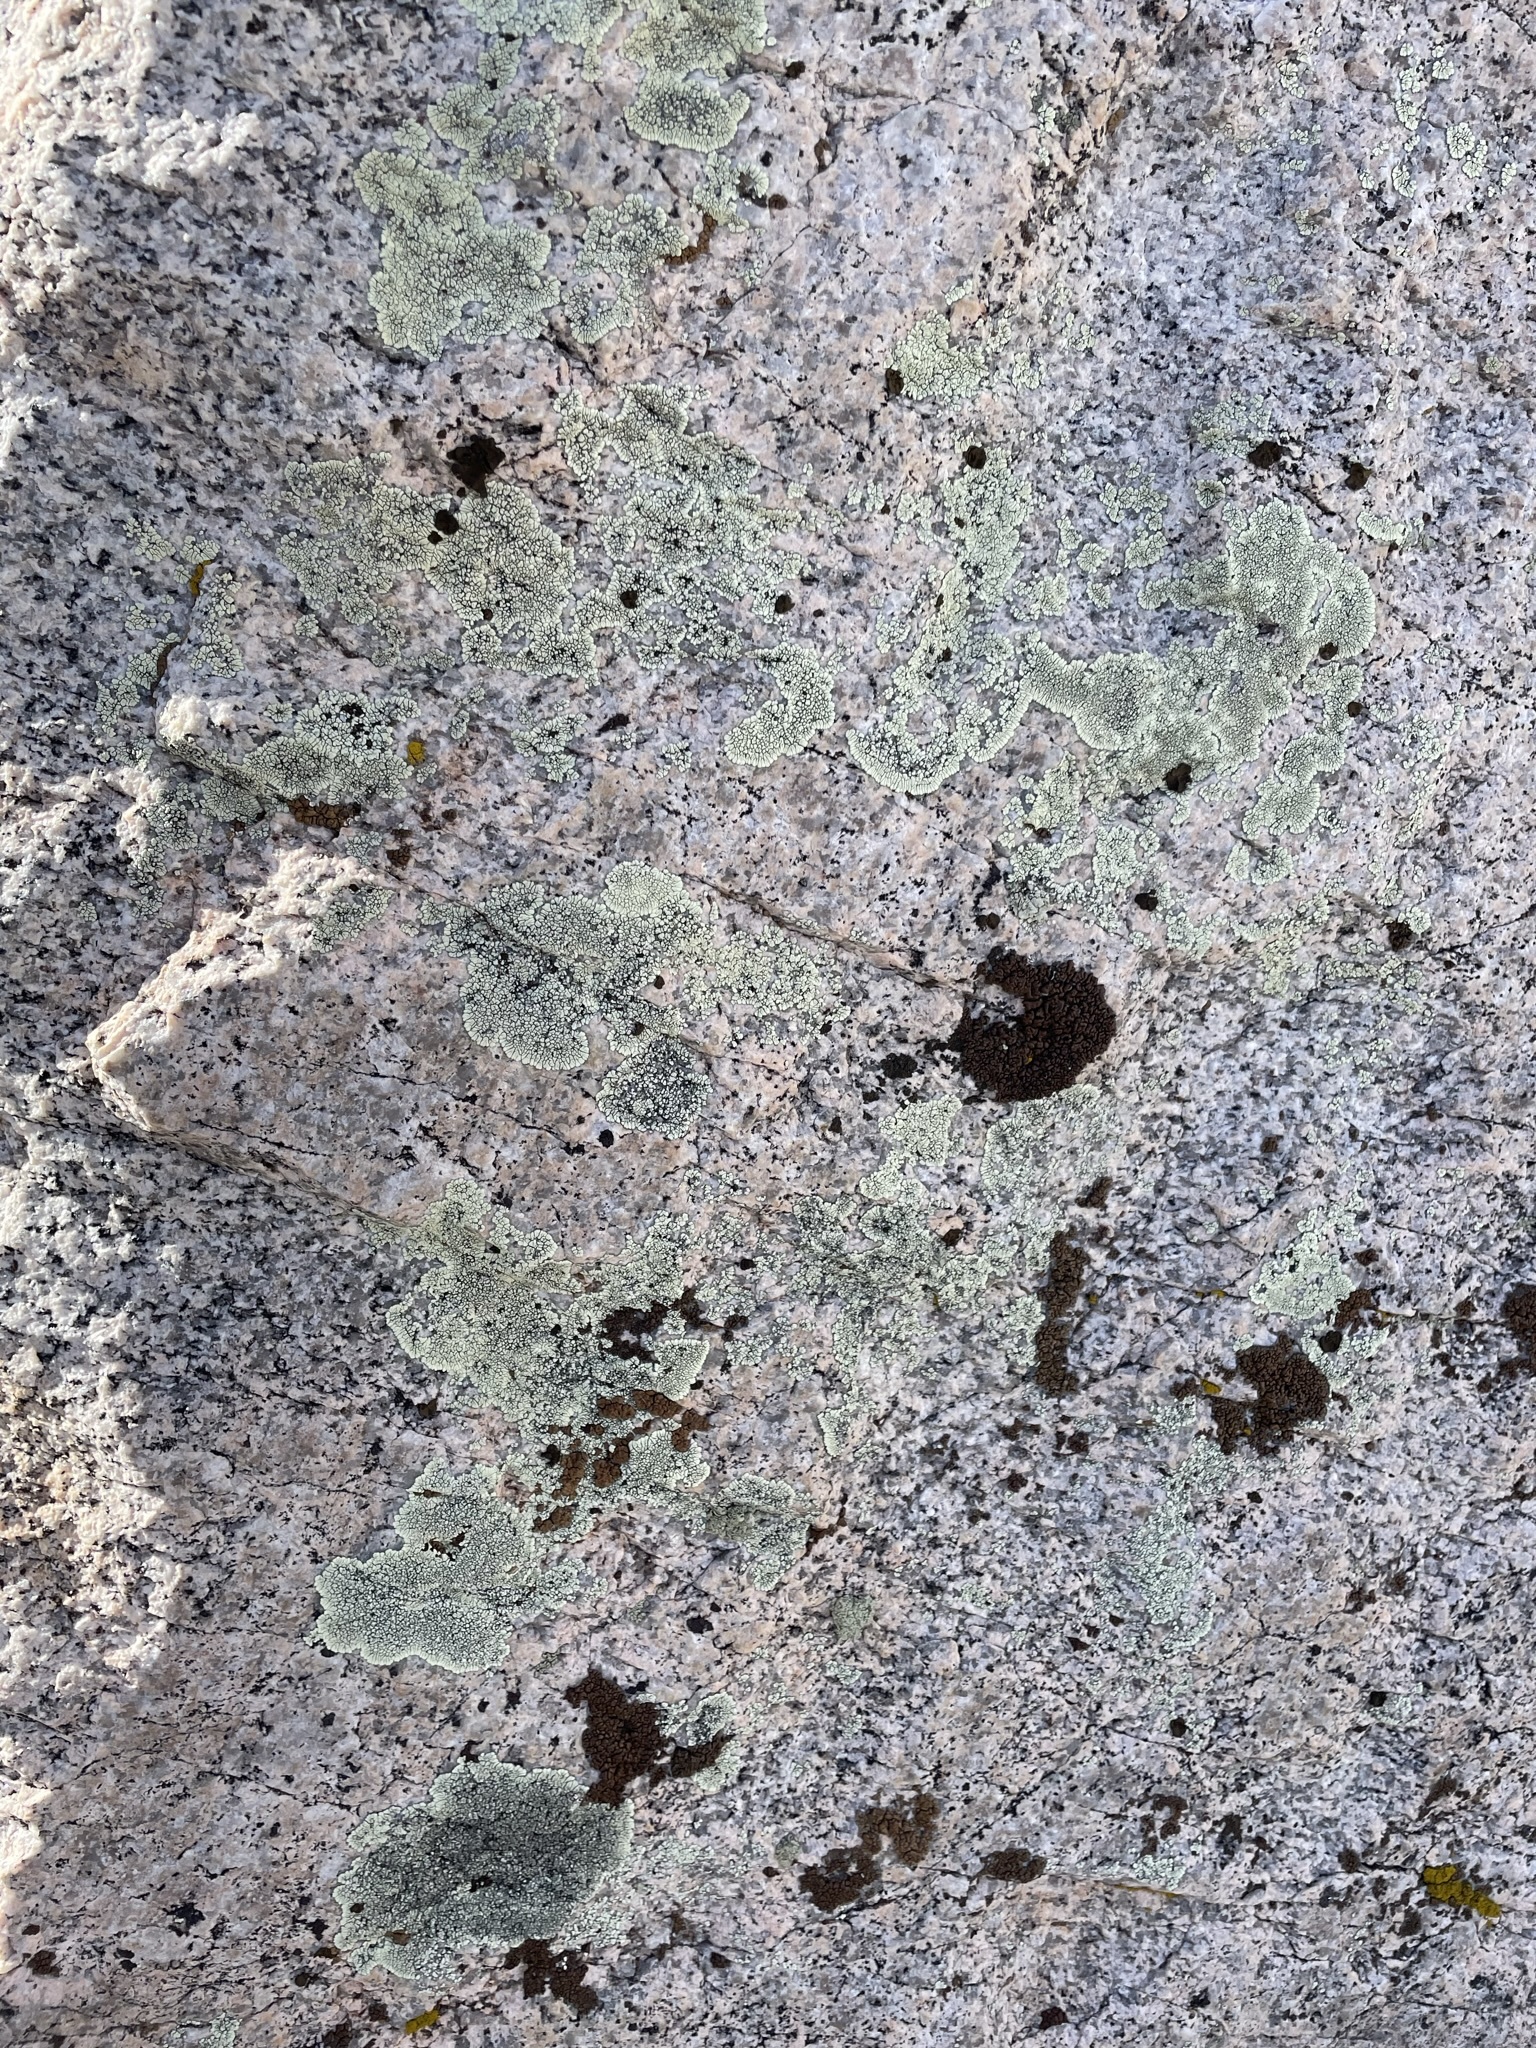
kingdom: Fungi
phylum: Ascomycota
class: Lecanoromycetes
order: Caliciales
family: Caliciaceae
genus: Dimelaena
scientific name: Dimelaena oreina
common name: Golden moonglow lichen
